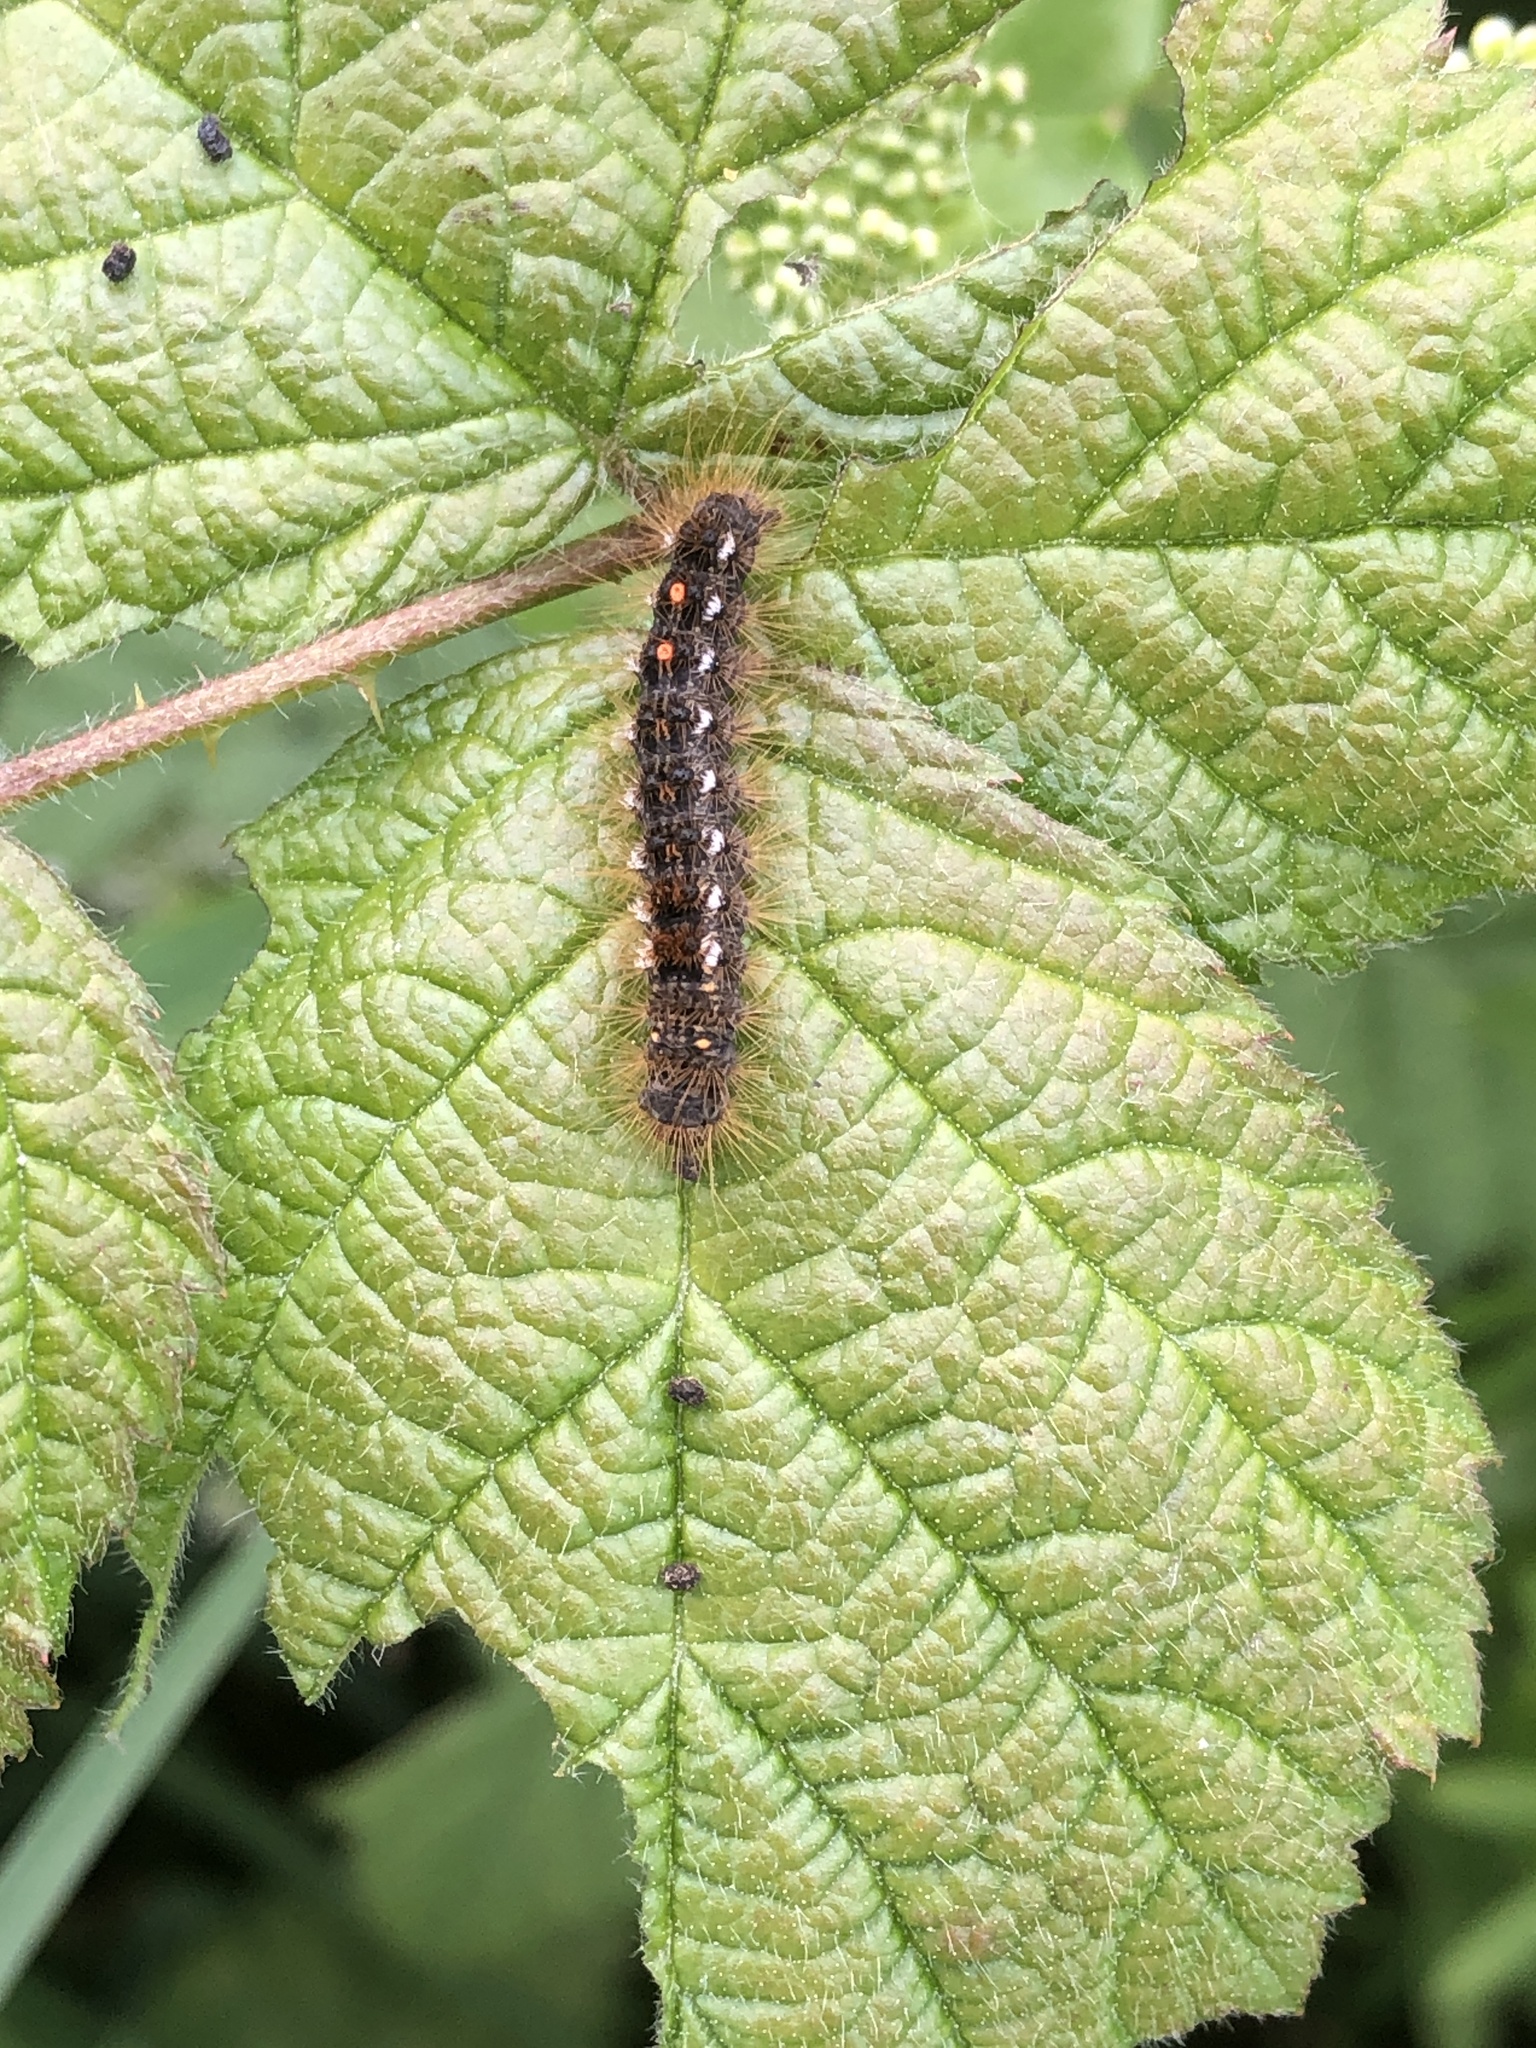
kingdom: Animalia
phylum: Arthropoda
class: Insecta
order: Lepidoptera
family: Erebidae
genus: Euproctis
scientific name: Euproctis chrysorrhoea
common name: Brown-tail
